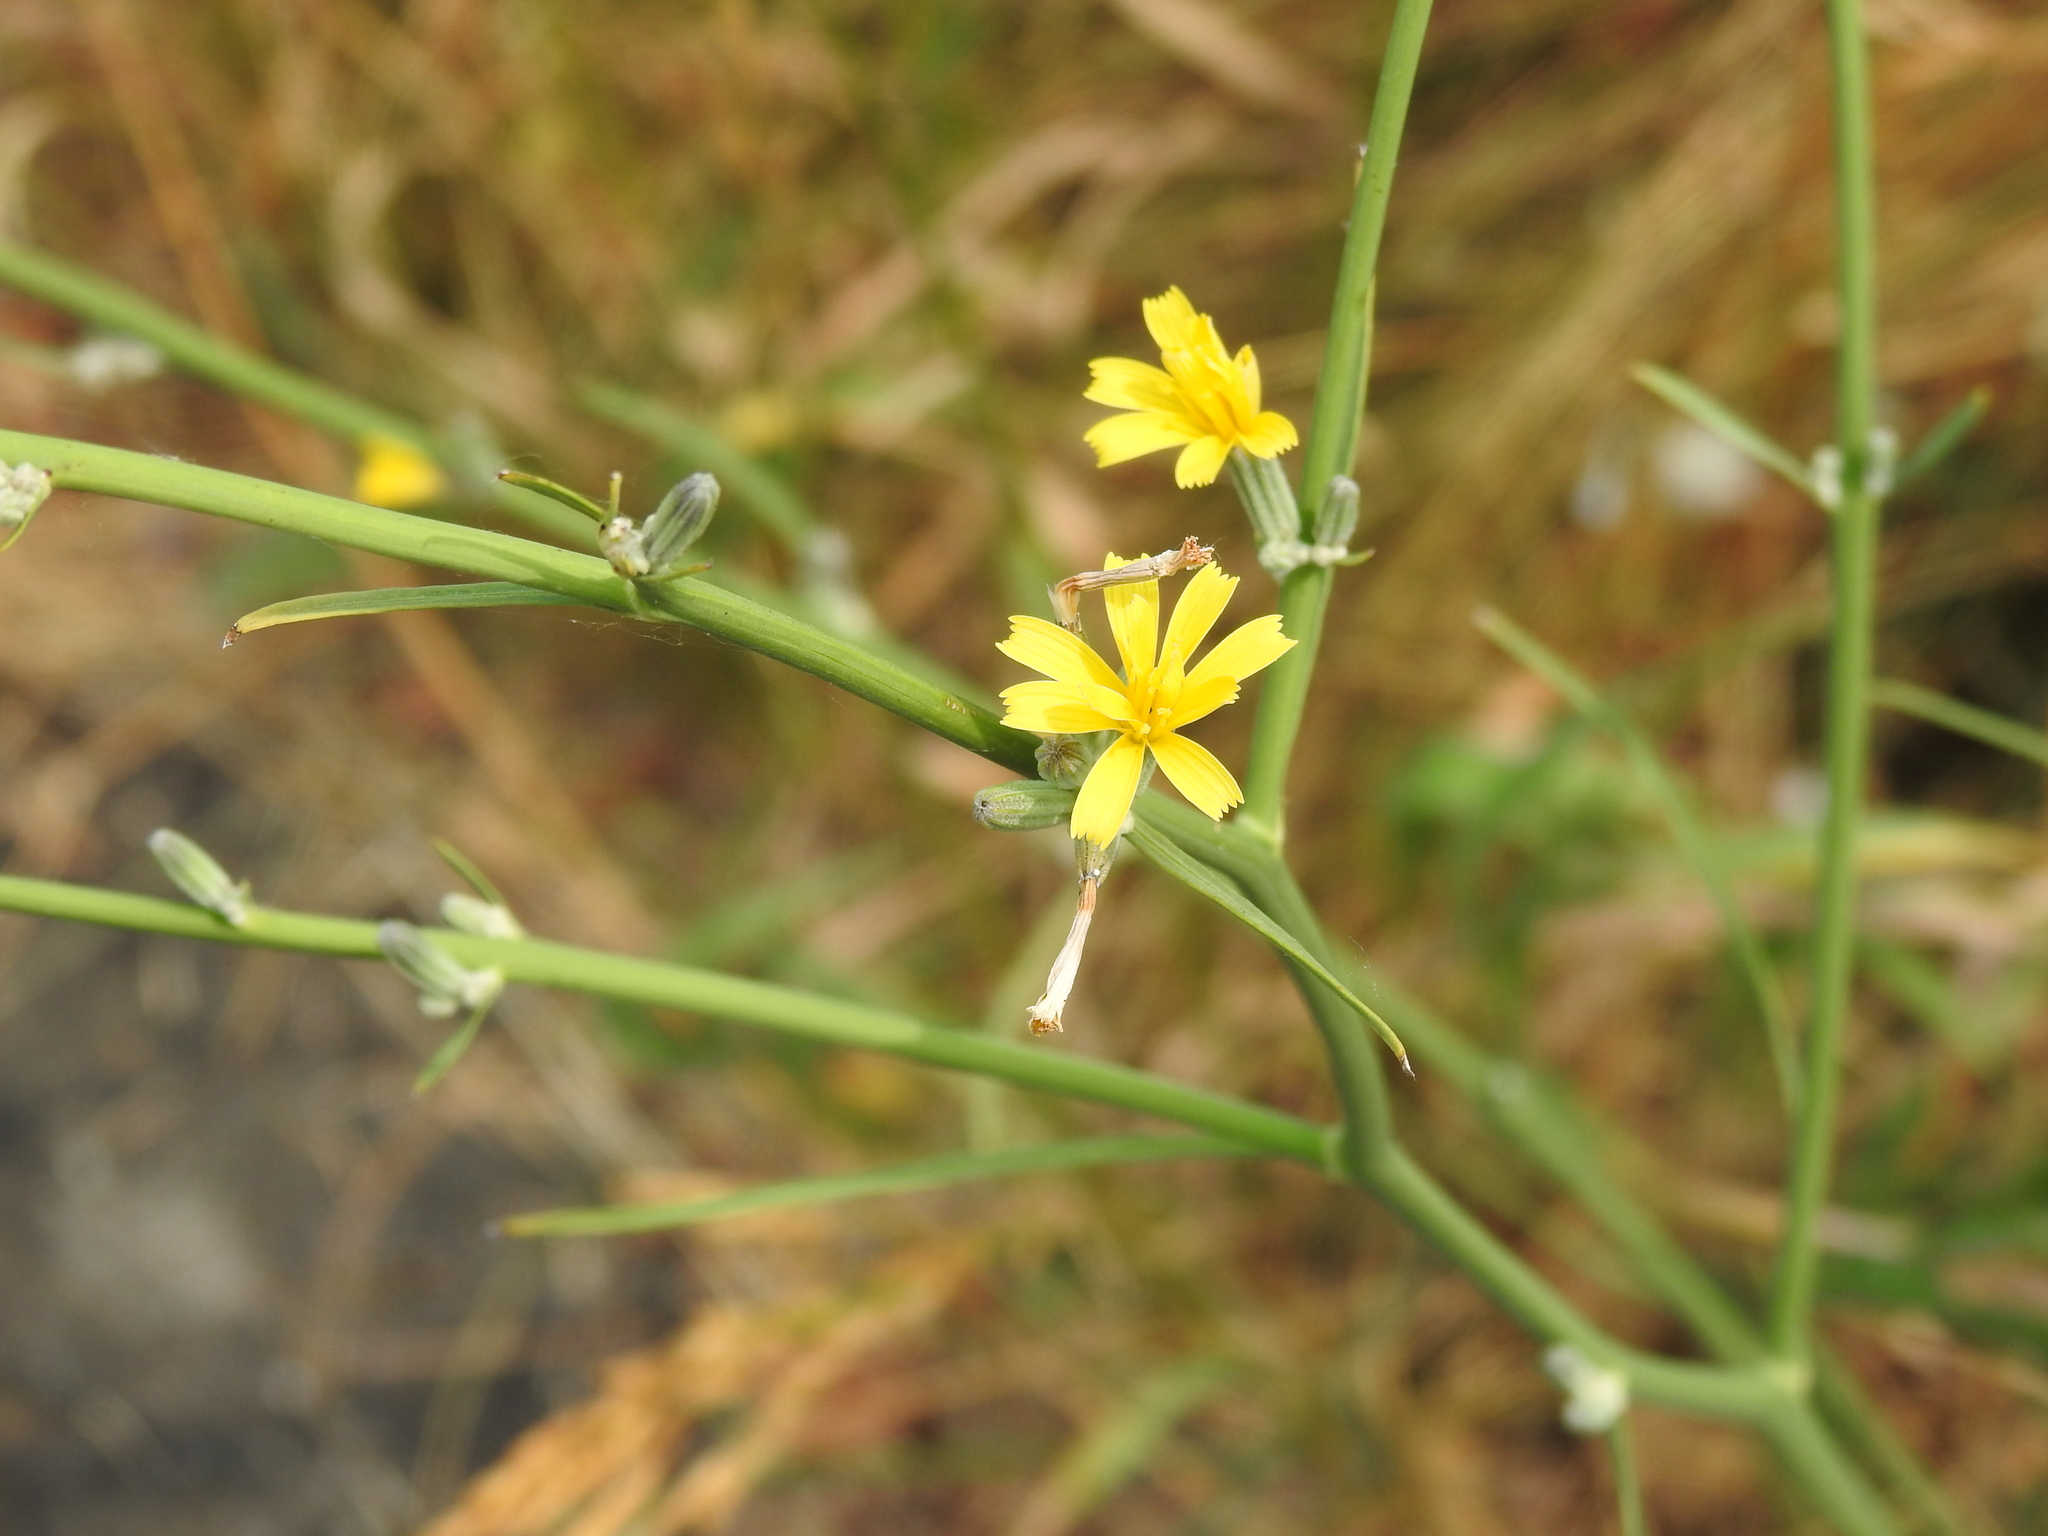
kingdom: Plantae
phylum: Tracheophyta
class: Magnoliopsida
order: Asterales
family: Asteraceae
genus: Chondrilla
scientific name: Chondrilla juncea
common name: Skeleton weed
